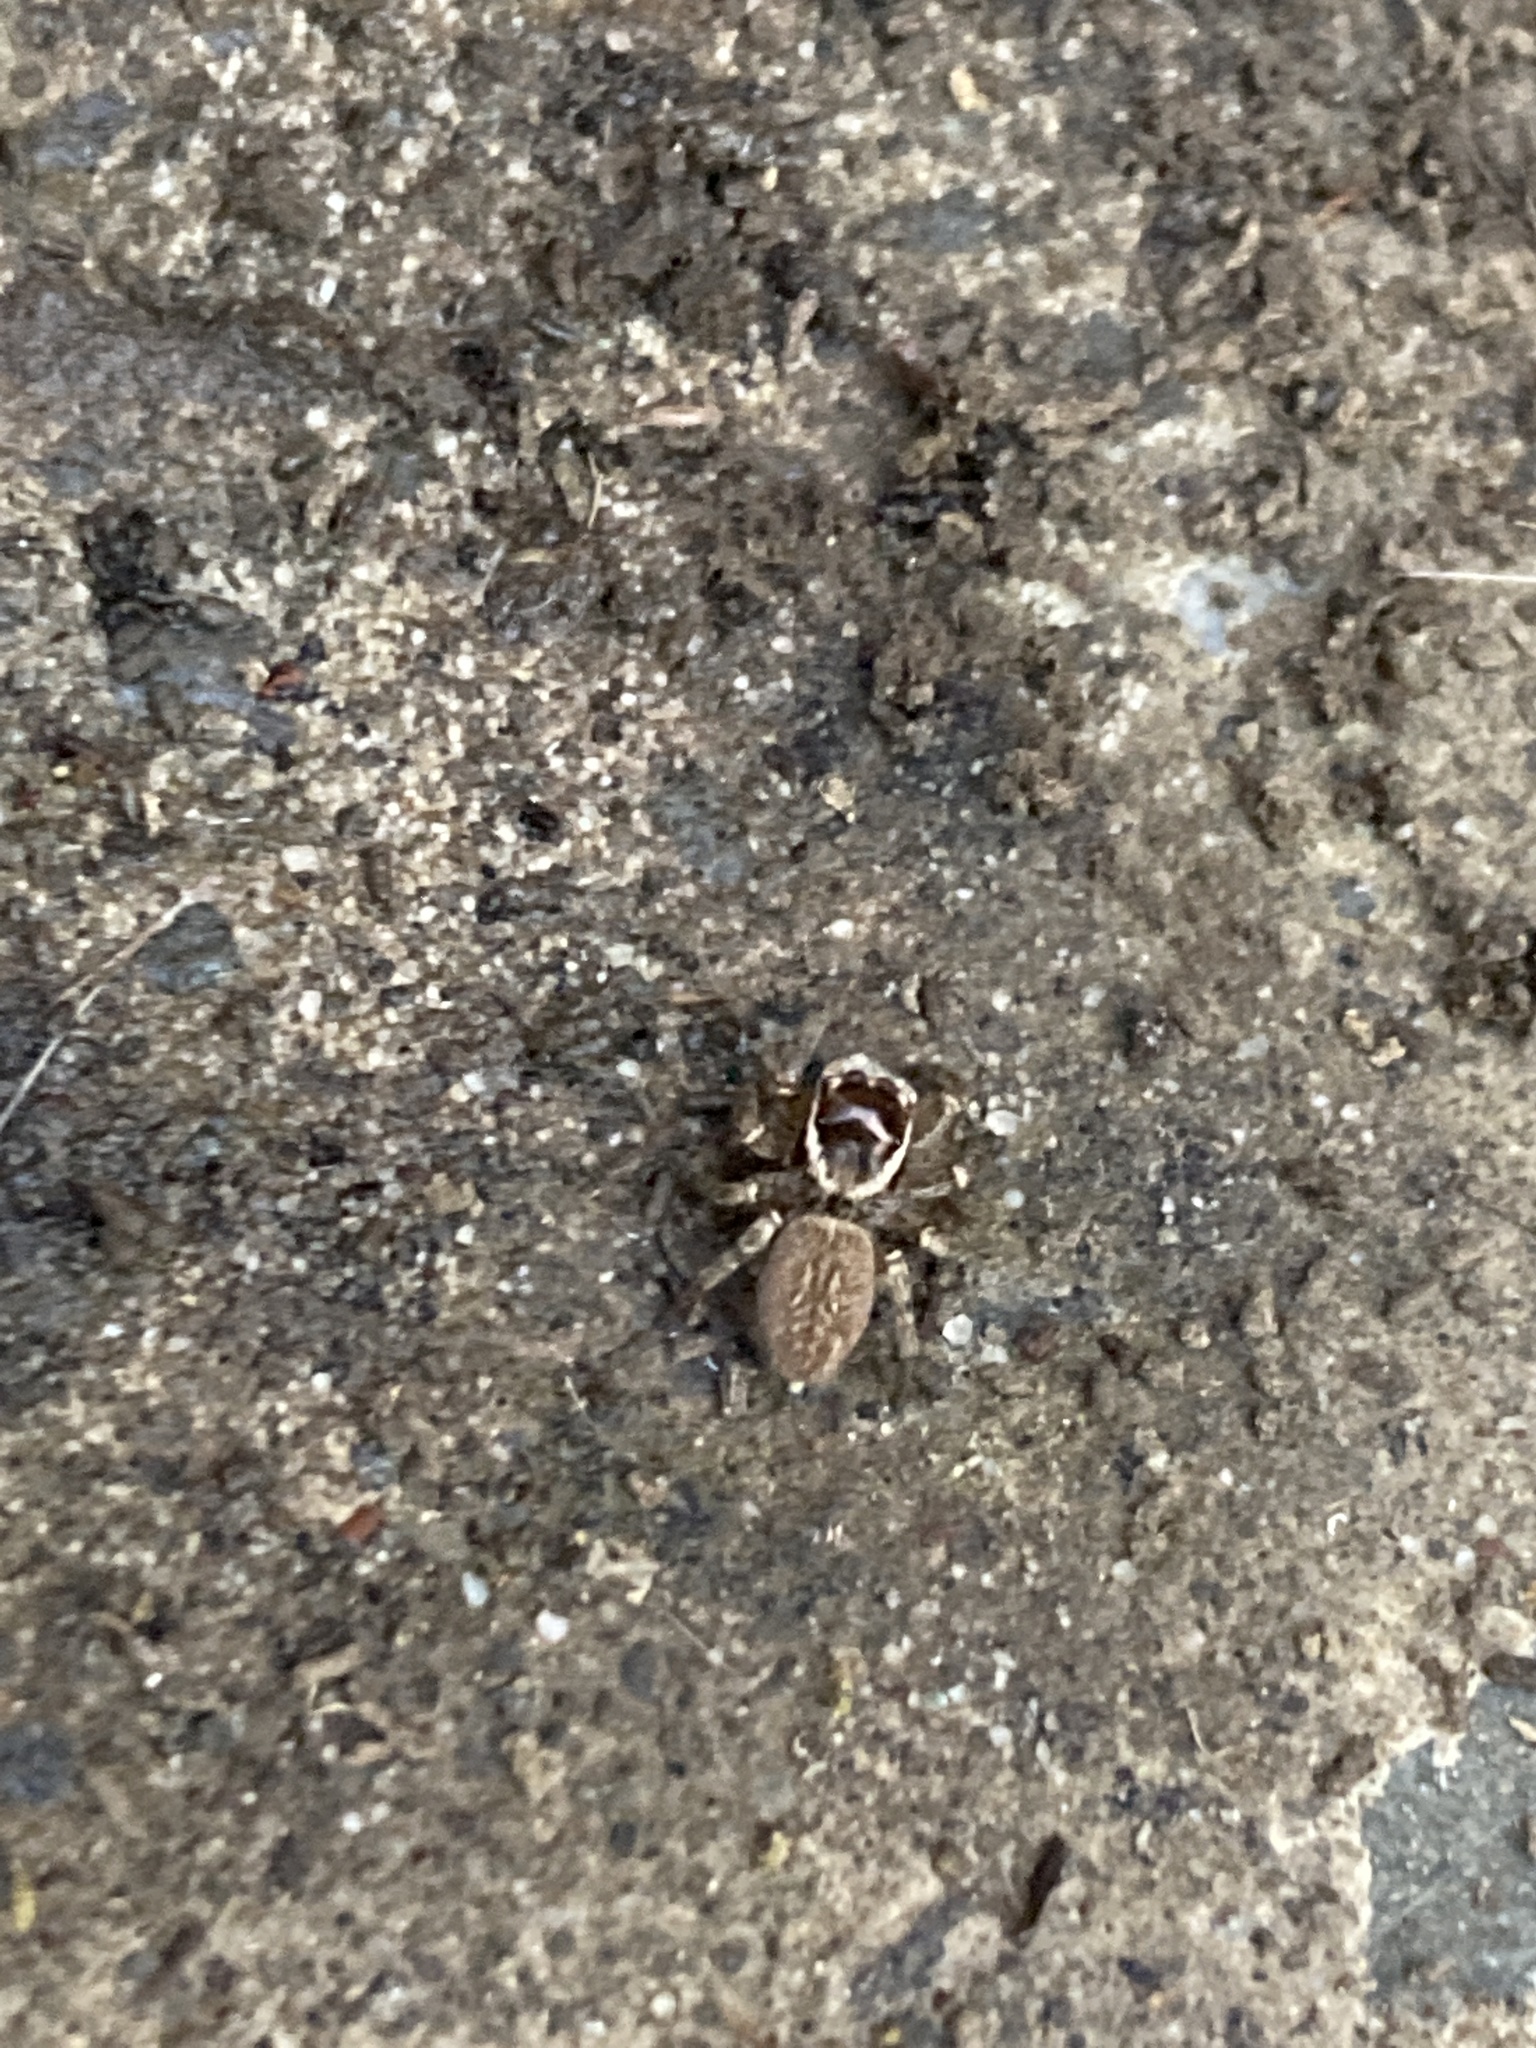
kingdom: Animalia
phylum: Arthropoda
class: Arachnida
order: Araneae
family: Salticidae
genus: Maratus
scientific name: Maratus griseus
